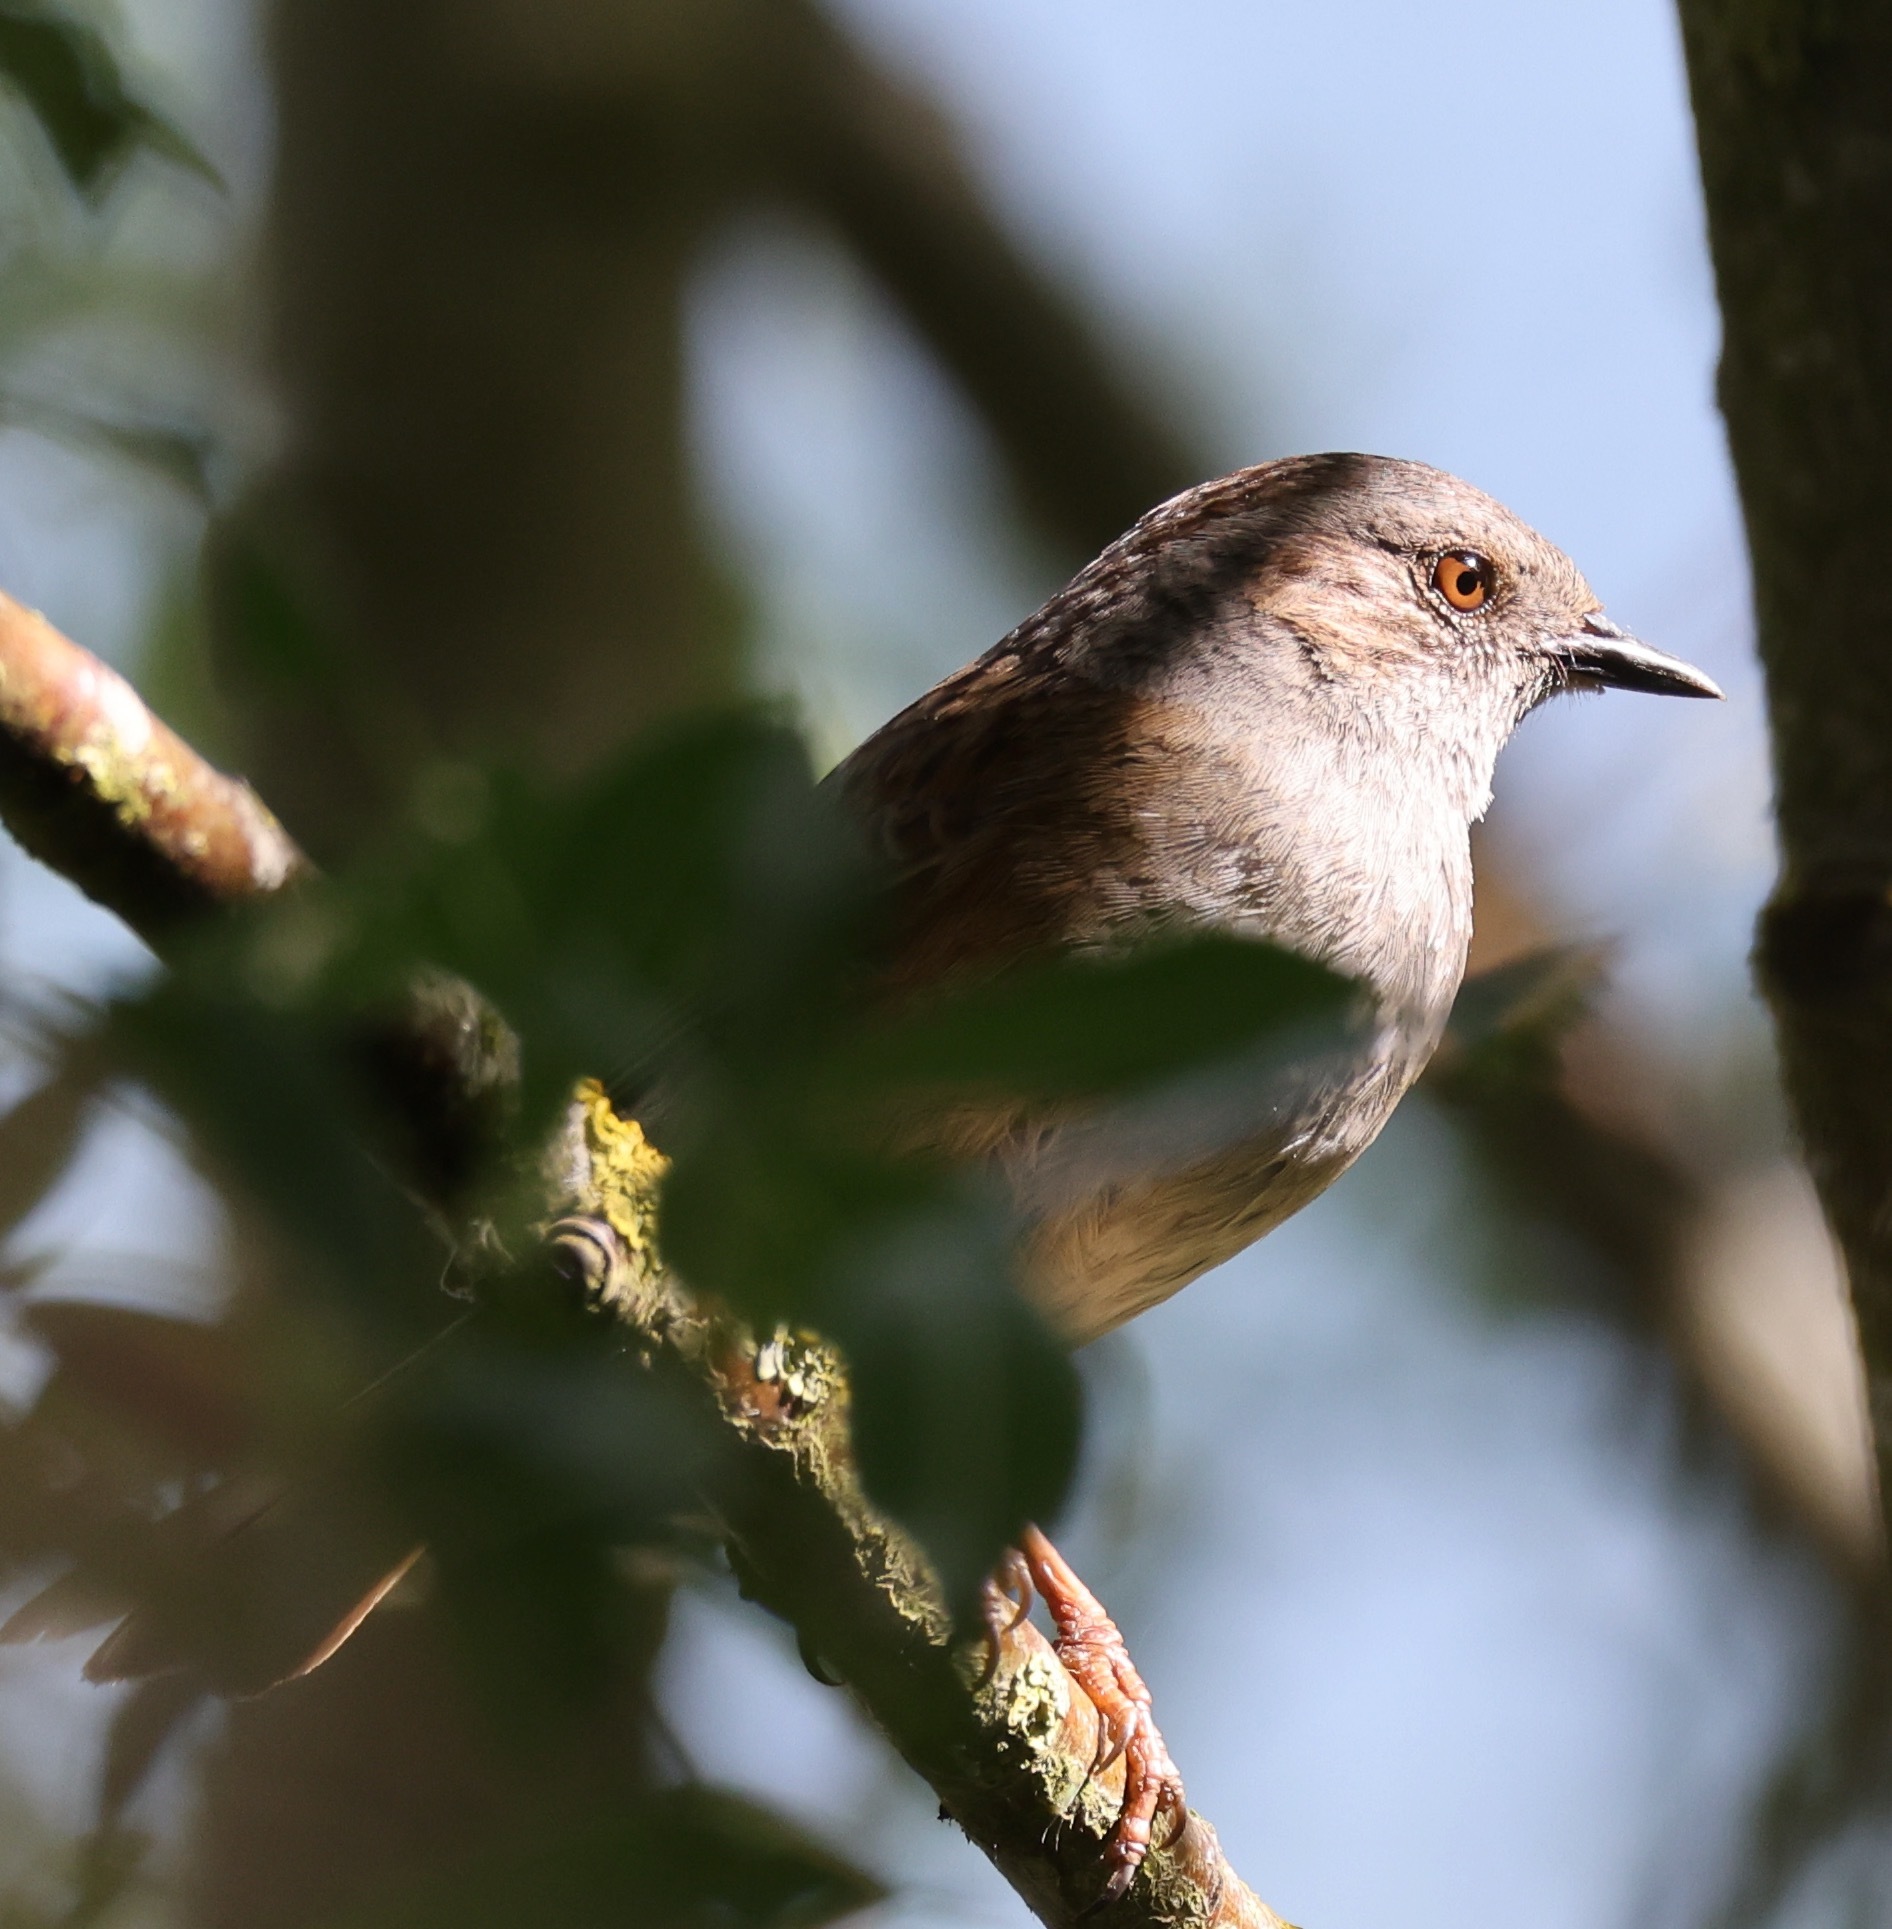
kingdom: Animalia
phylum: Chordata
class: Aves
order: Passeriformes
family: Prunellidae
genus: Prunella
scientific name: Prunella modularis
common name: Dunnock
